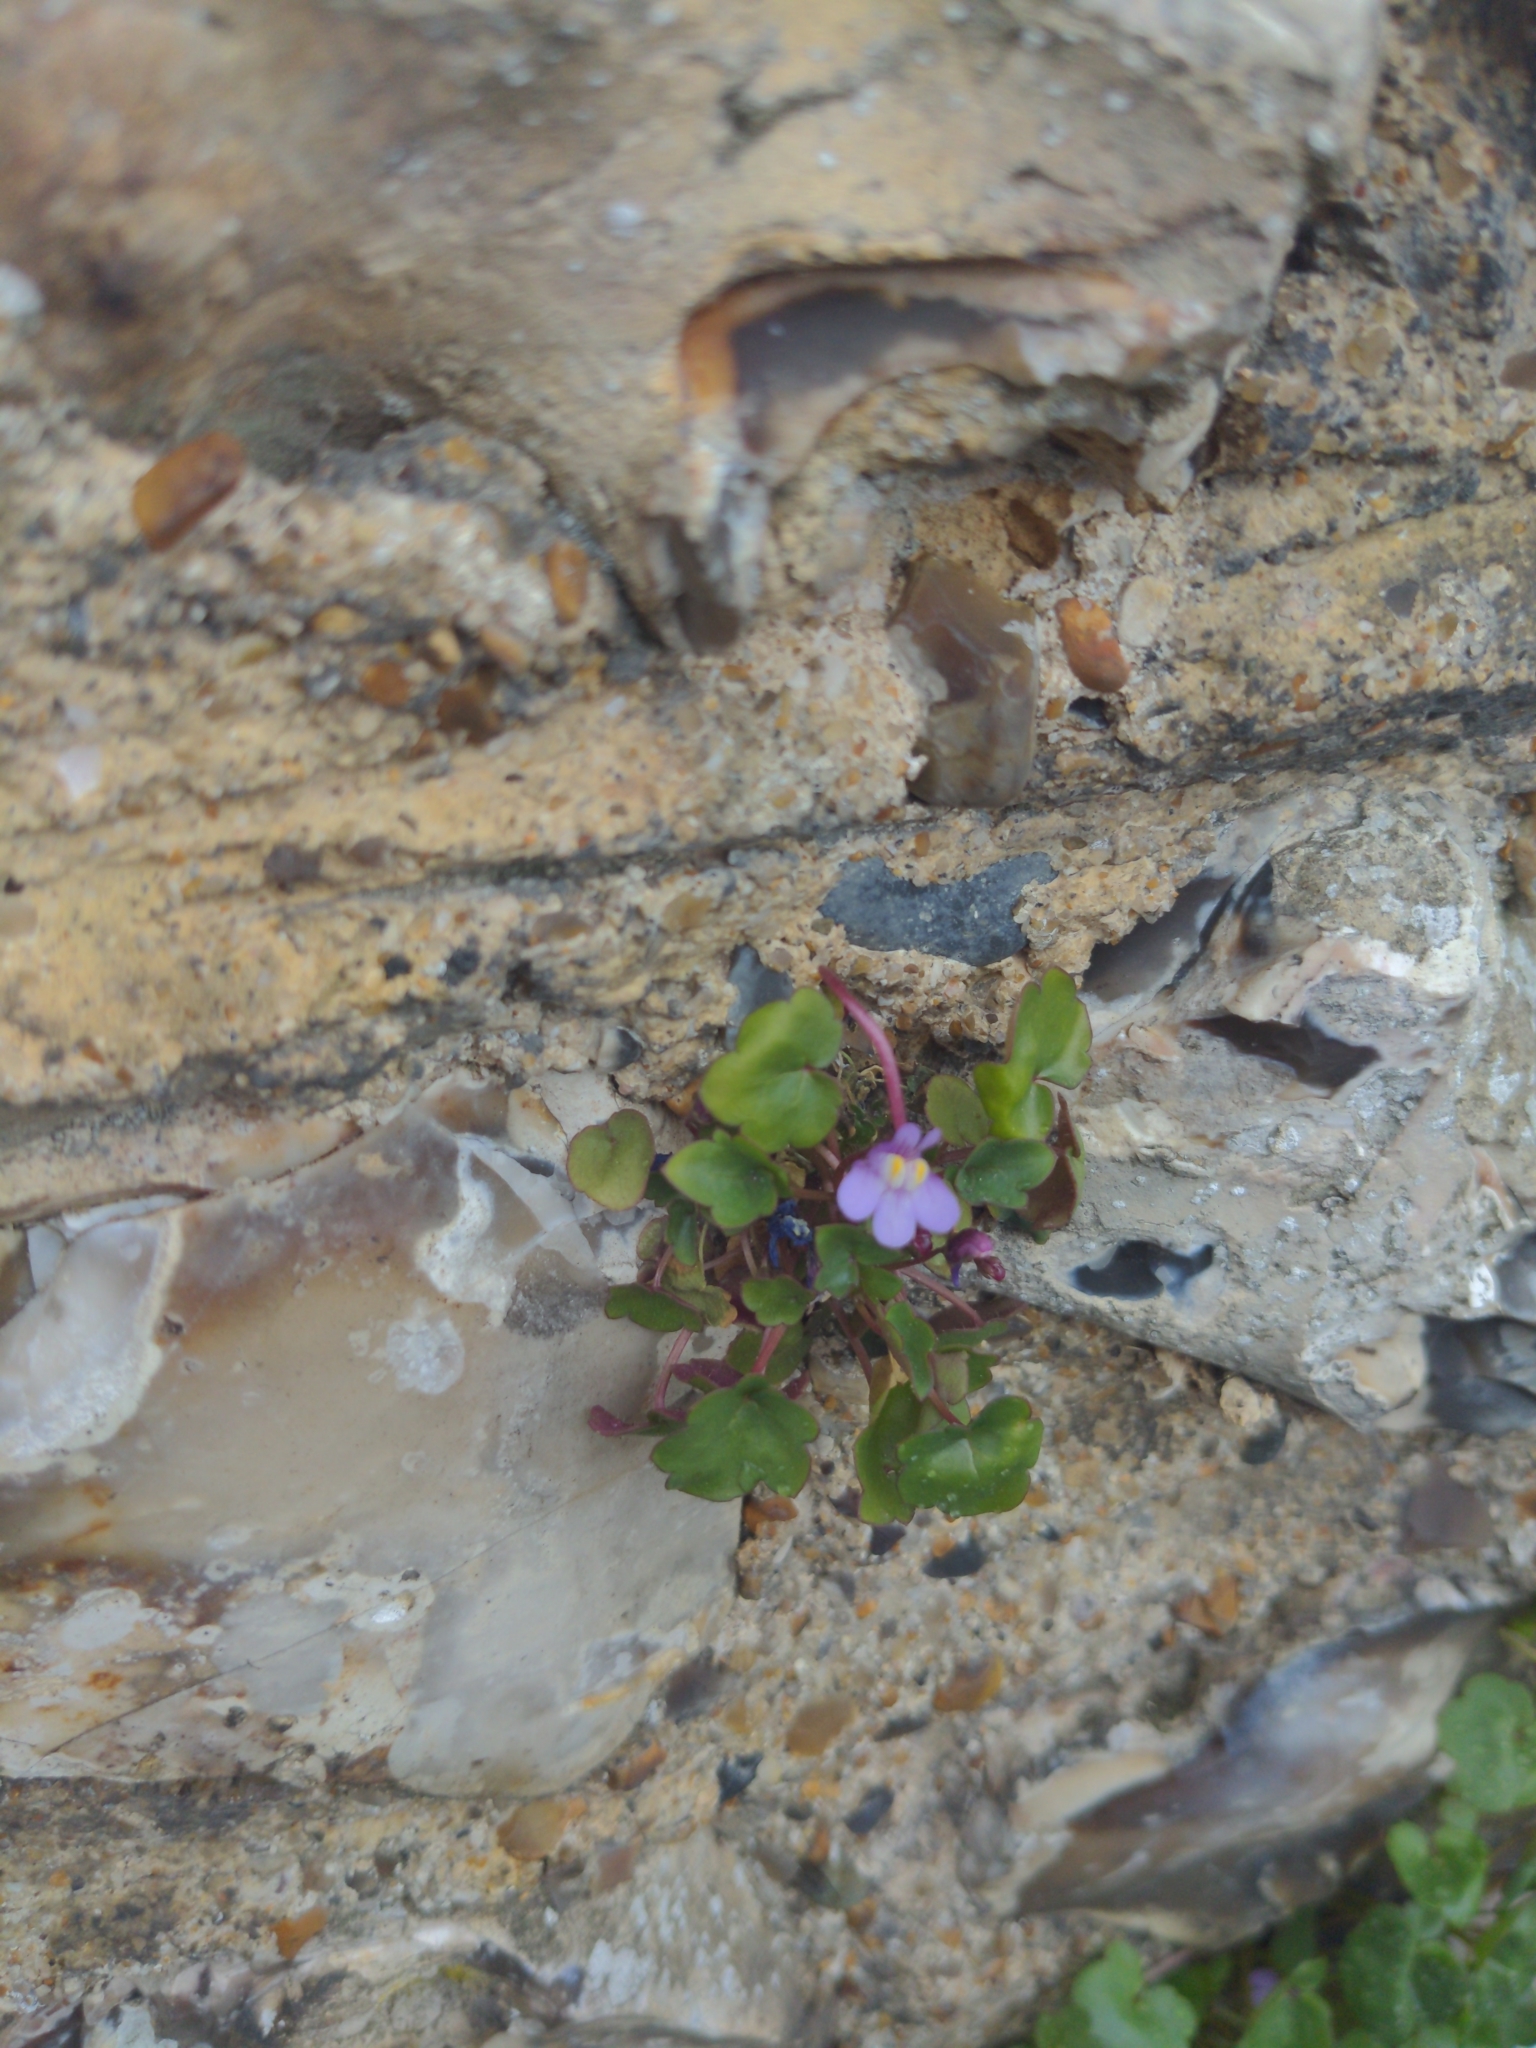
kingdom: Plantae
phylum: Tracheophyta
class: Magnoliopsida
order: Lamiales
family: Plantaginaceae
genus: Cymbalaria
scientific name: Cymbalaria muralis
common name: Ivy-leaved toadflax
